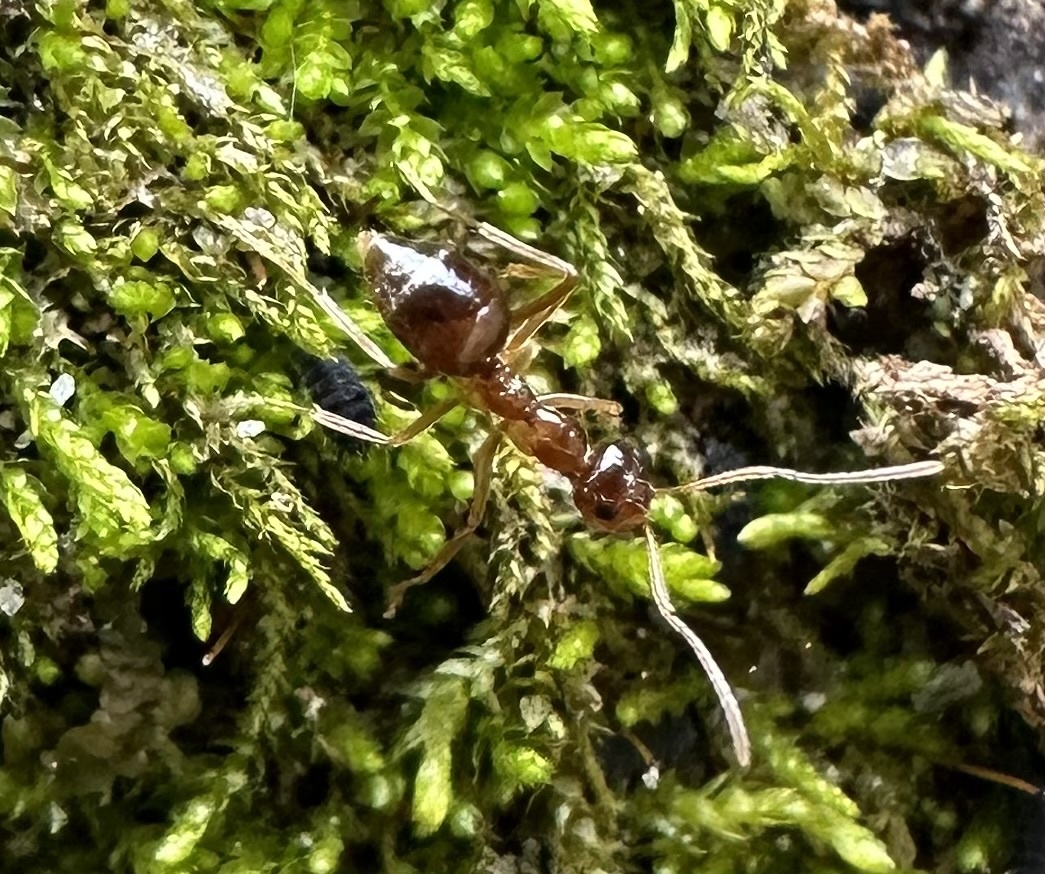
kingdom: Animalia
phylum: Arthropoda
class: Insecta
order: Hymenoptera
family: Formicidae
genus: Prenolepis
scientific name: Prenolepis imparis
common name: Small honey ant
